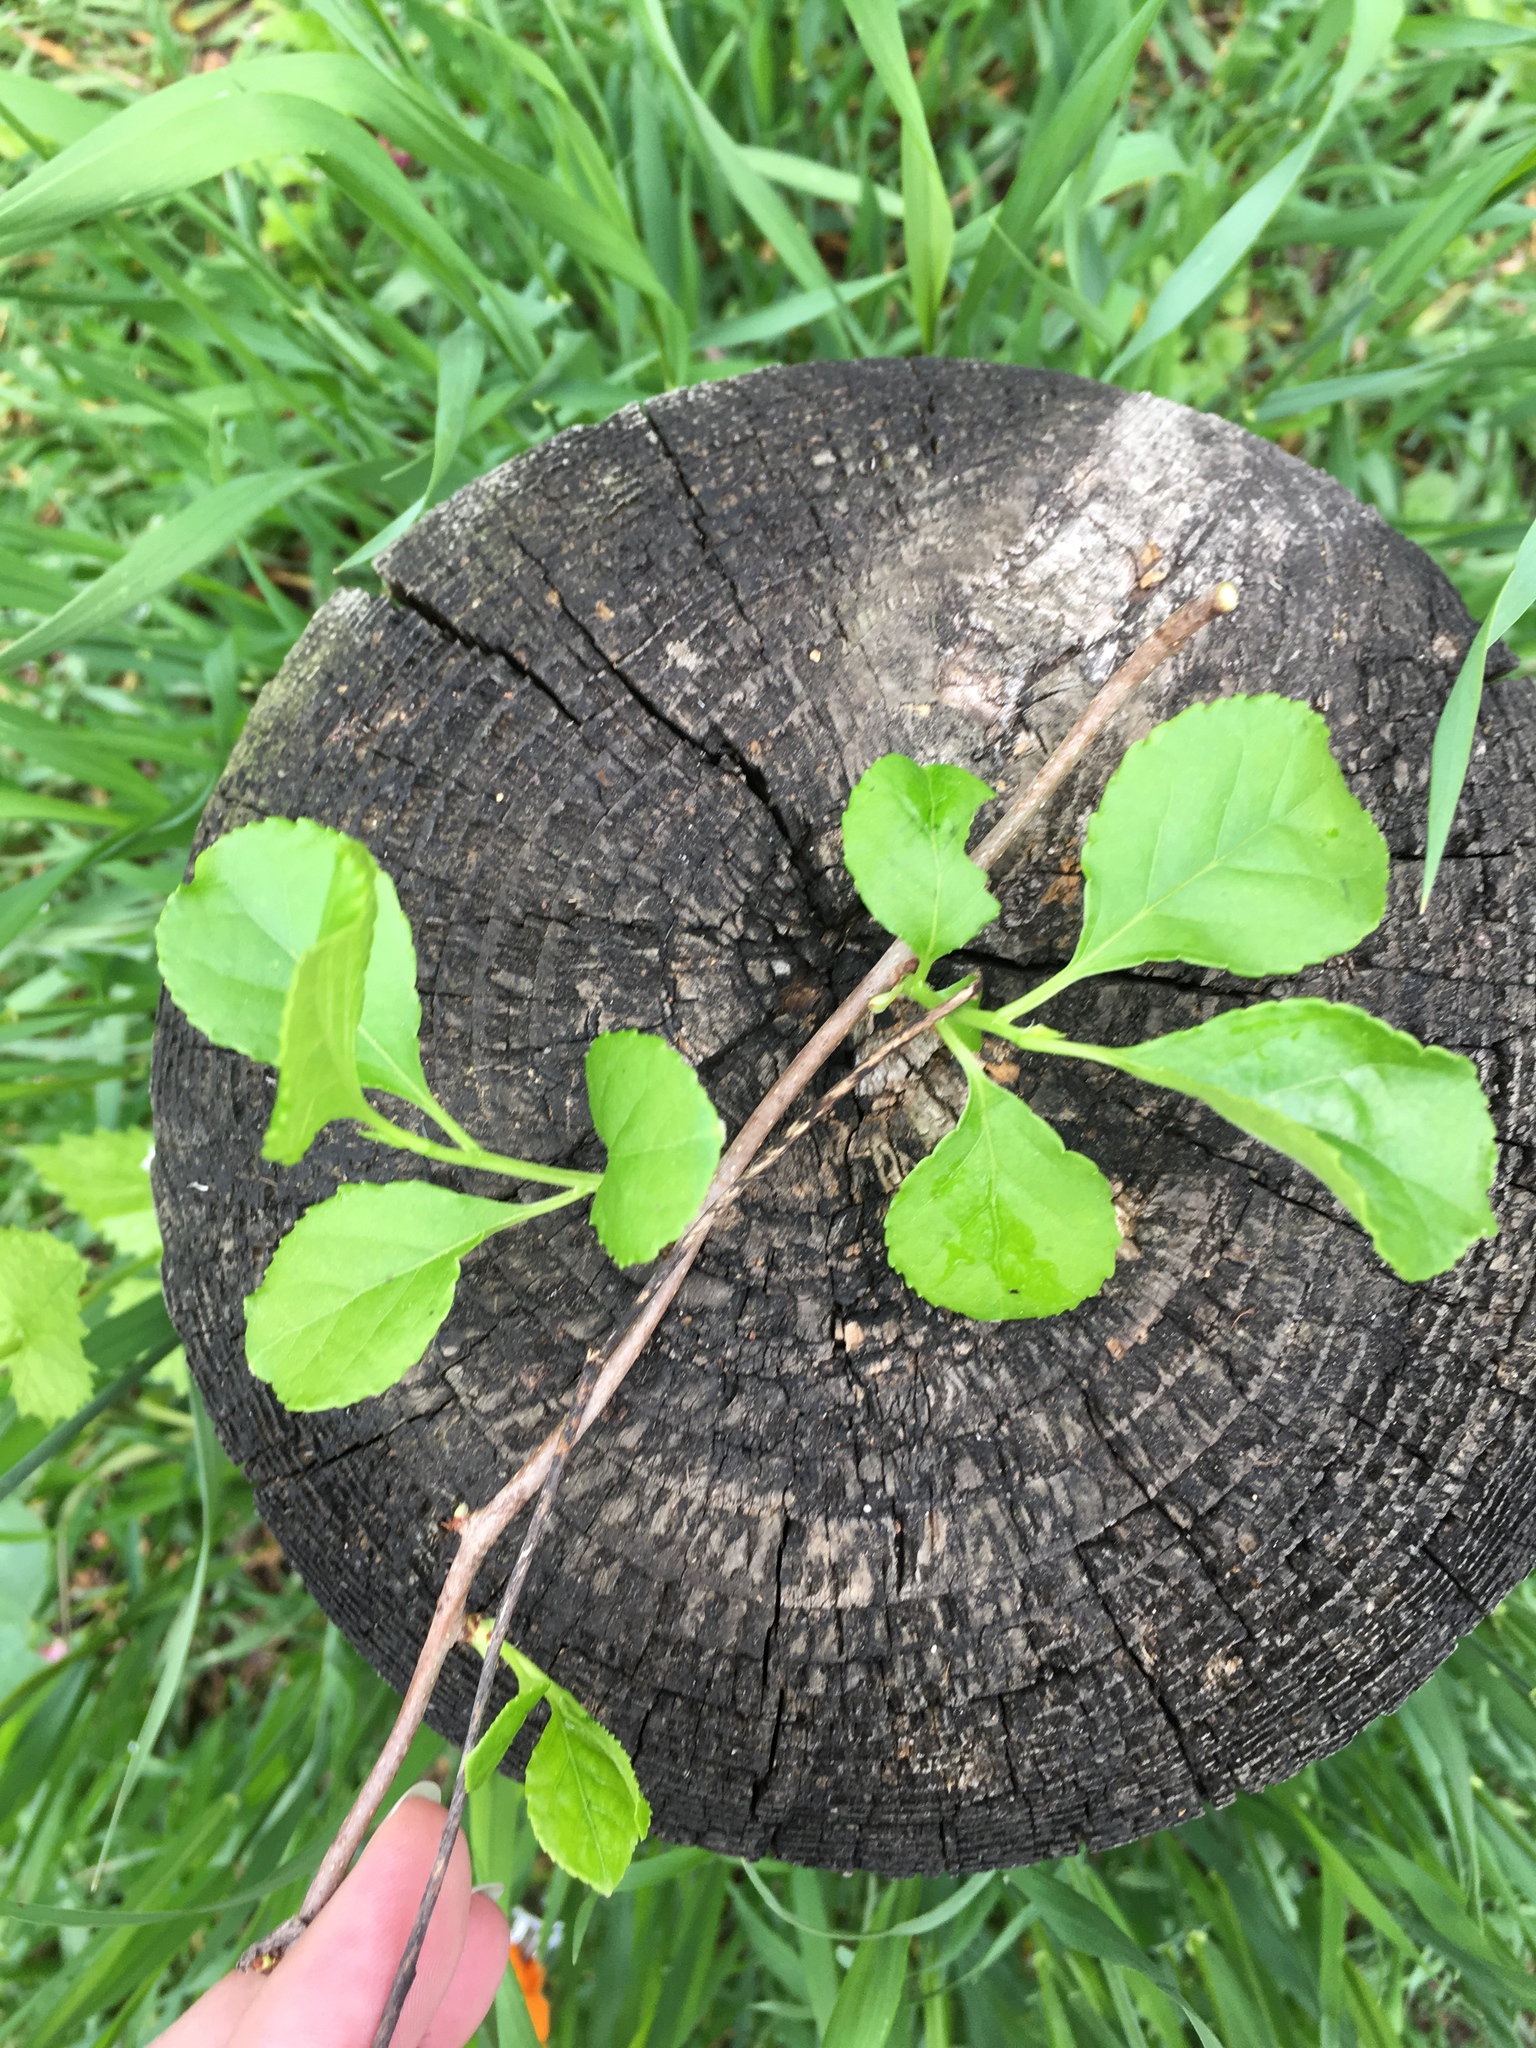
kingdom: Plantae
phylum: Tracheophyta
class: Magnoliopsida
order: Celastrales
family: Celastraceae
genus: Celastrus
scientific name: Celastrus orbiculatus
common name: Oriental bittersweet
